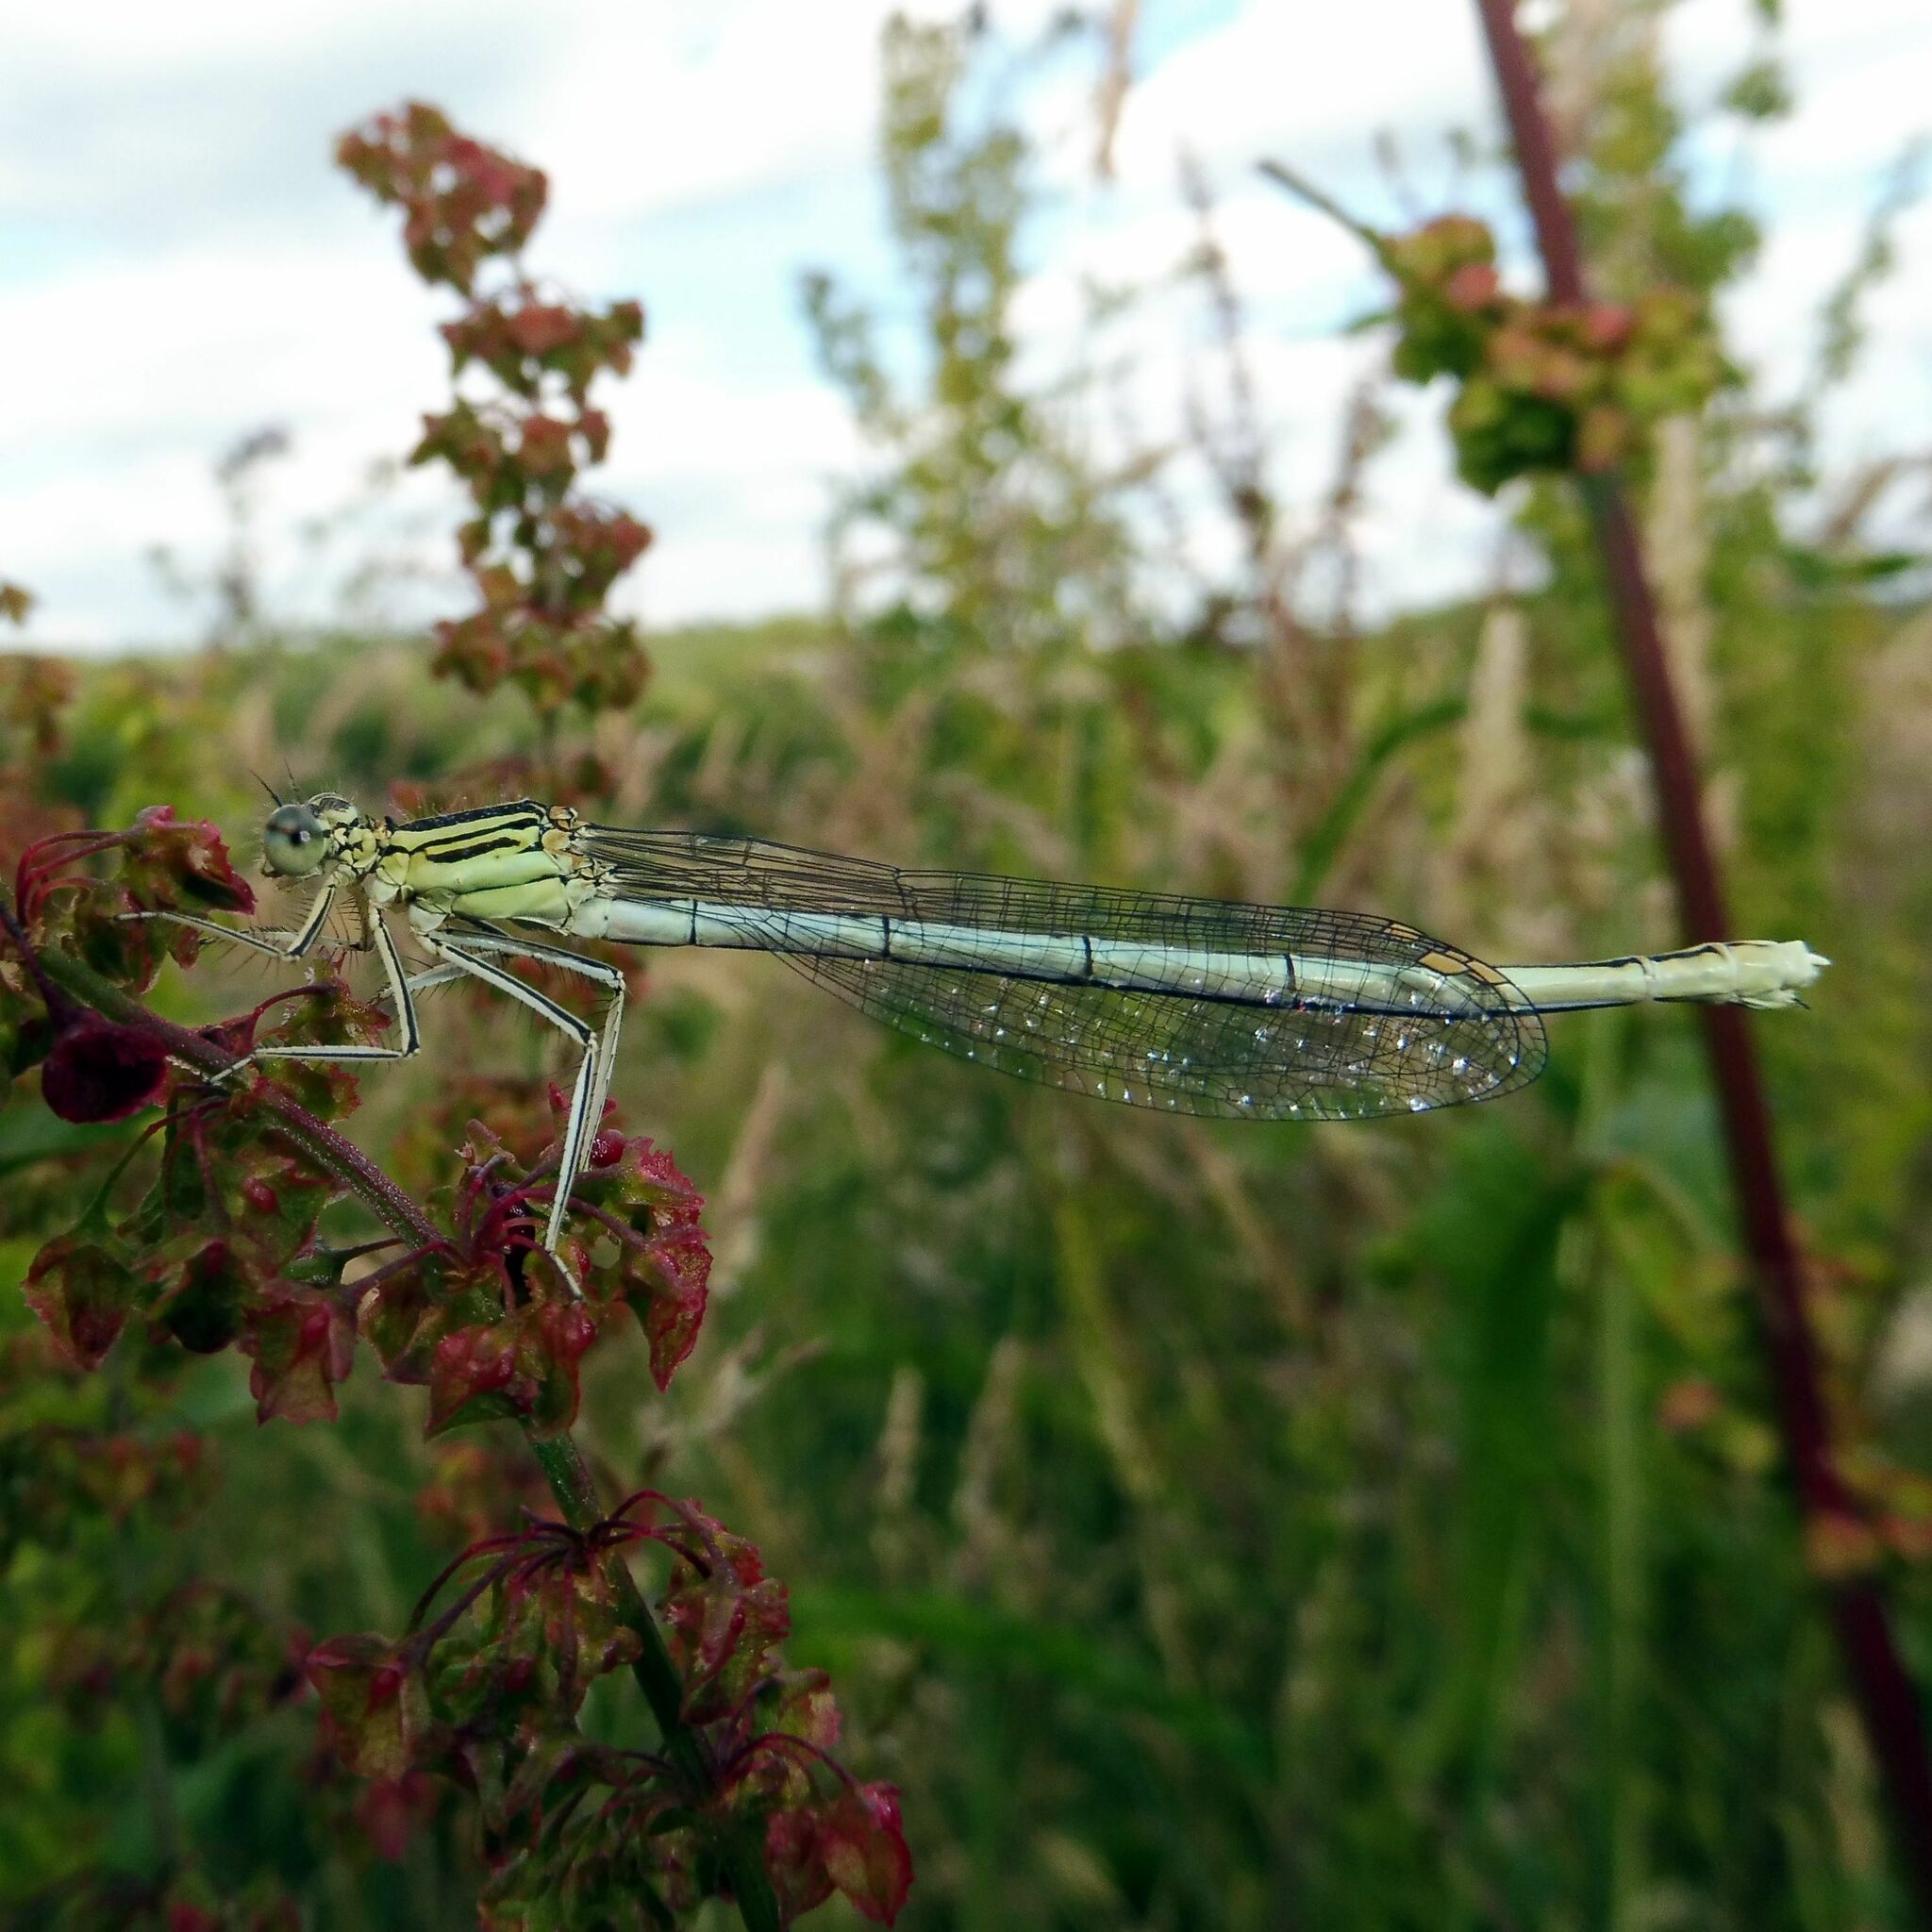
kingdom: Animalia
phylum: Arthropoda
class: Insecta
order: Odonata
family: Platycnemididae
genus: Platycnemis
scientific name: Platycnemis pennipes
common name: White-legged damselfly
